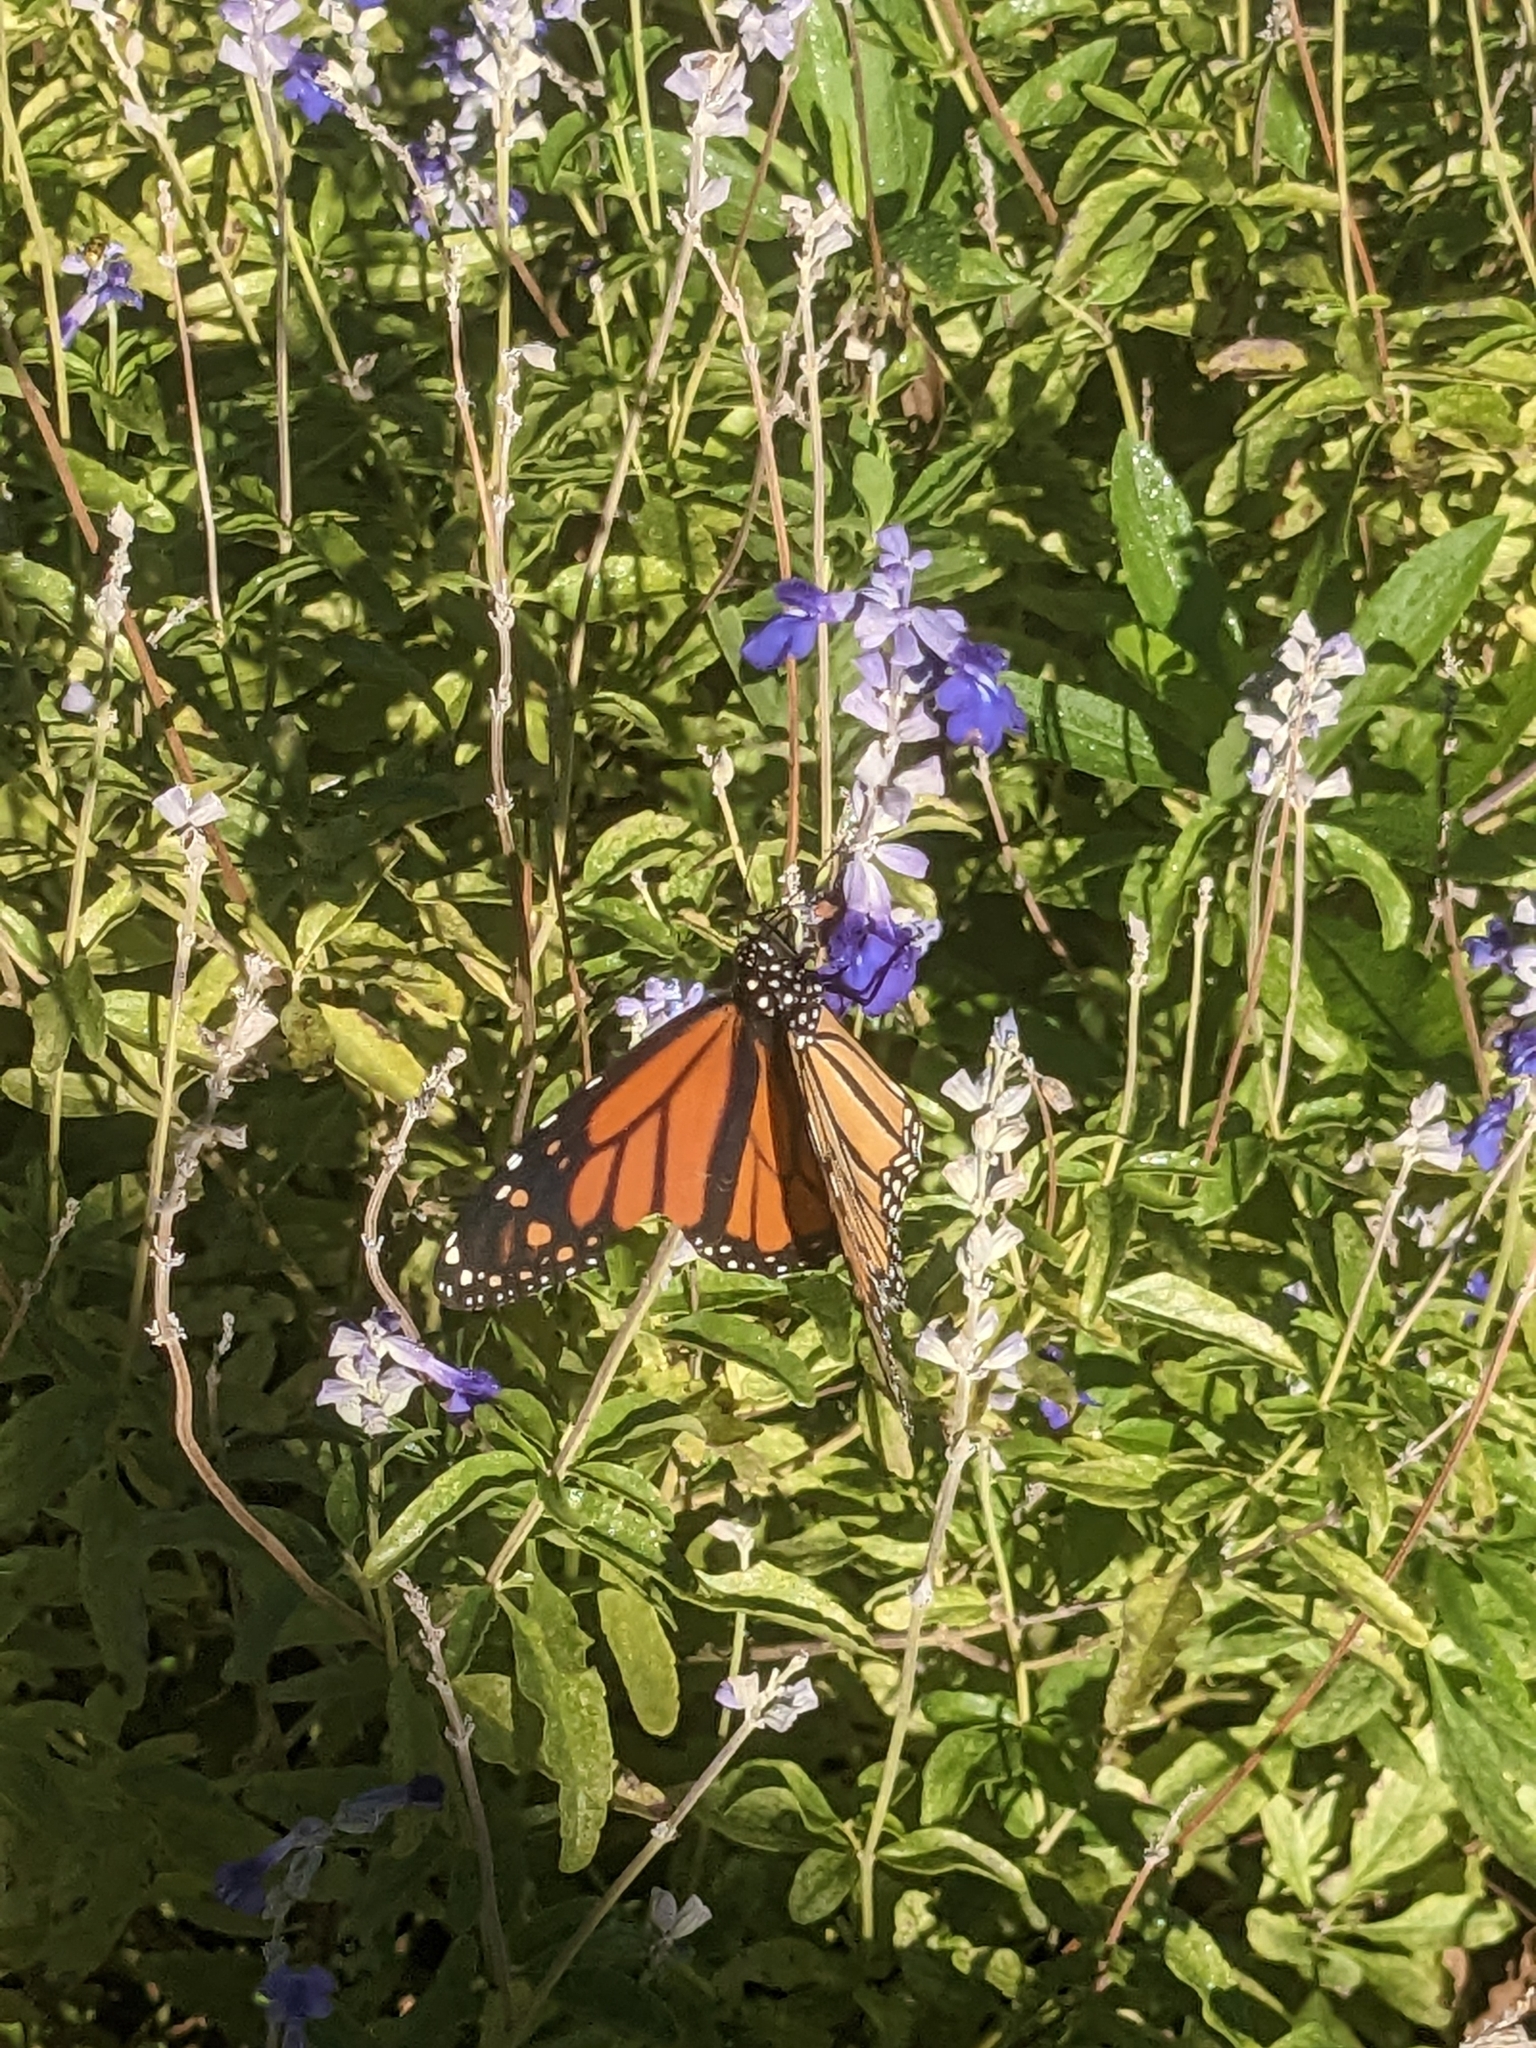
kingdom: Animalia
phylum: Arthropoda
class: Insecta
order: Lepidoptera
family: Nymphalidae
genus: Danaus
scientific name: Danaus plexippus
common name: Monarch
